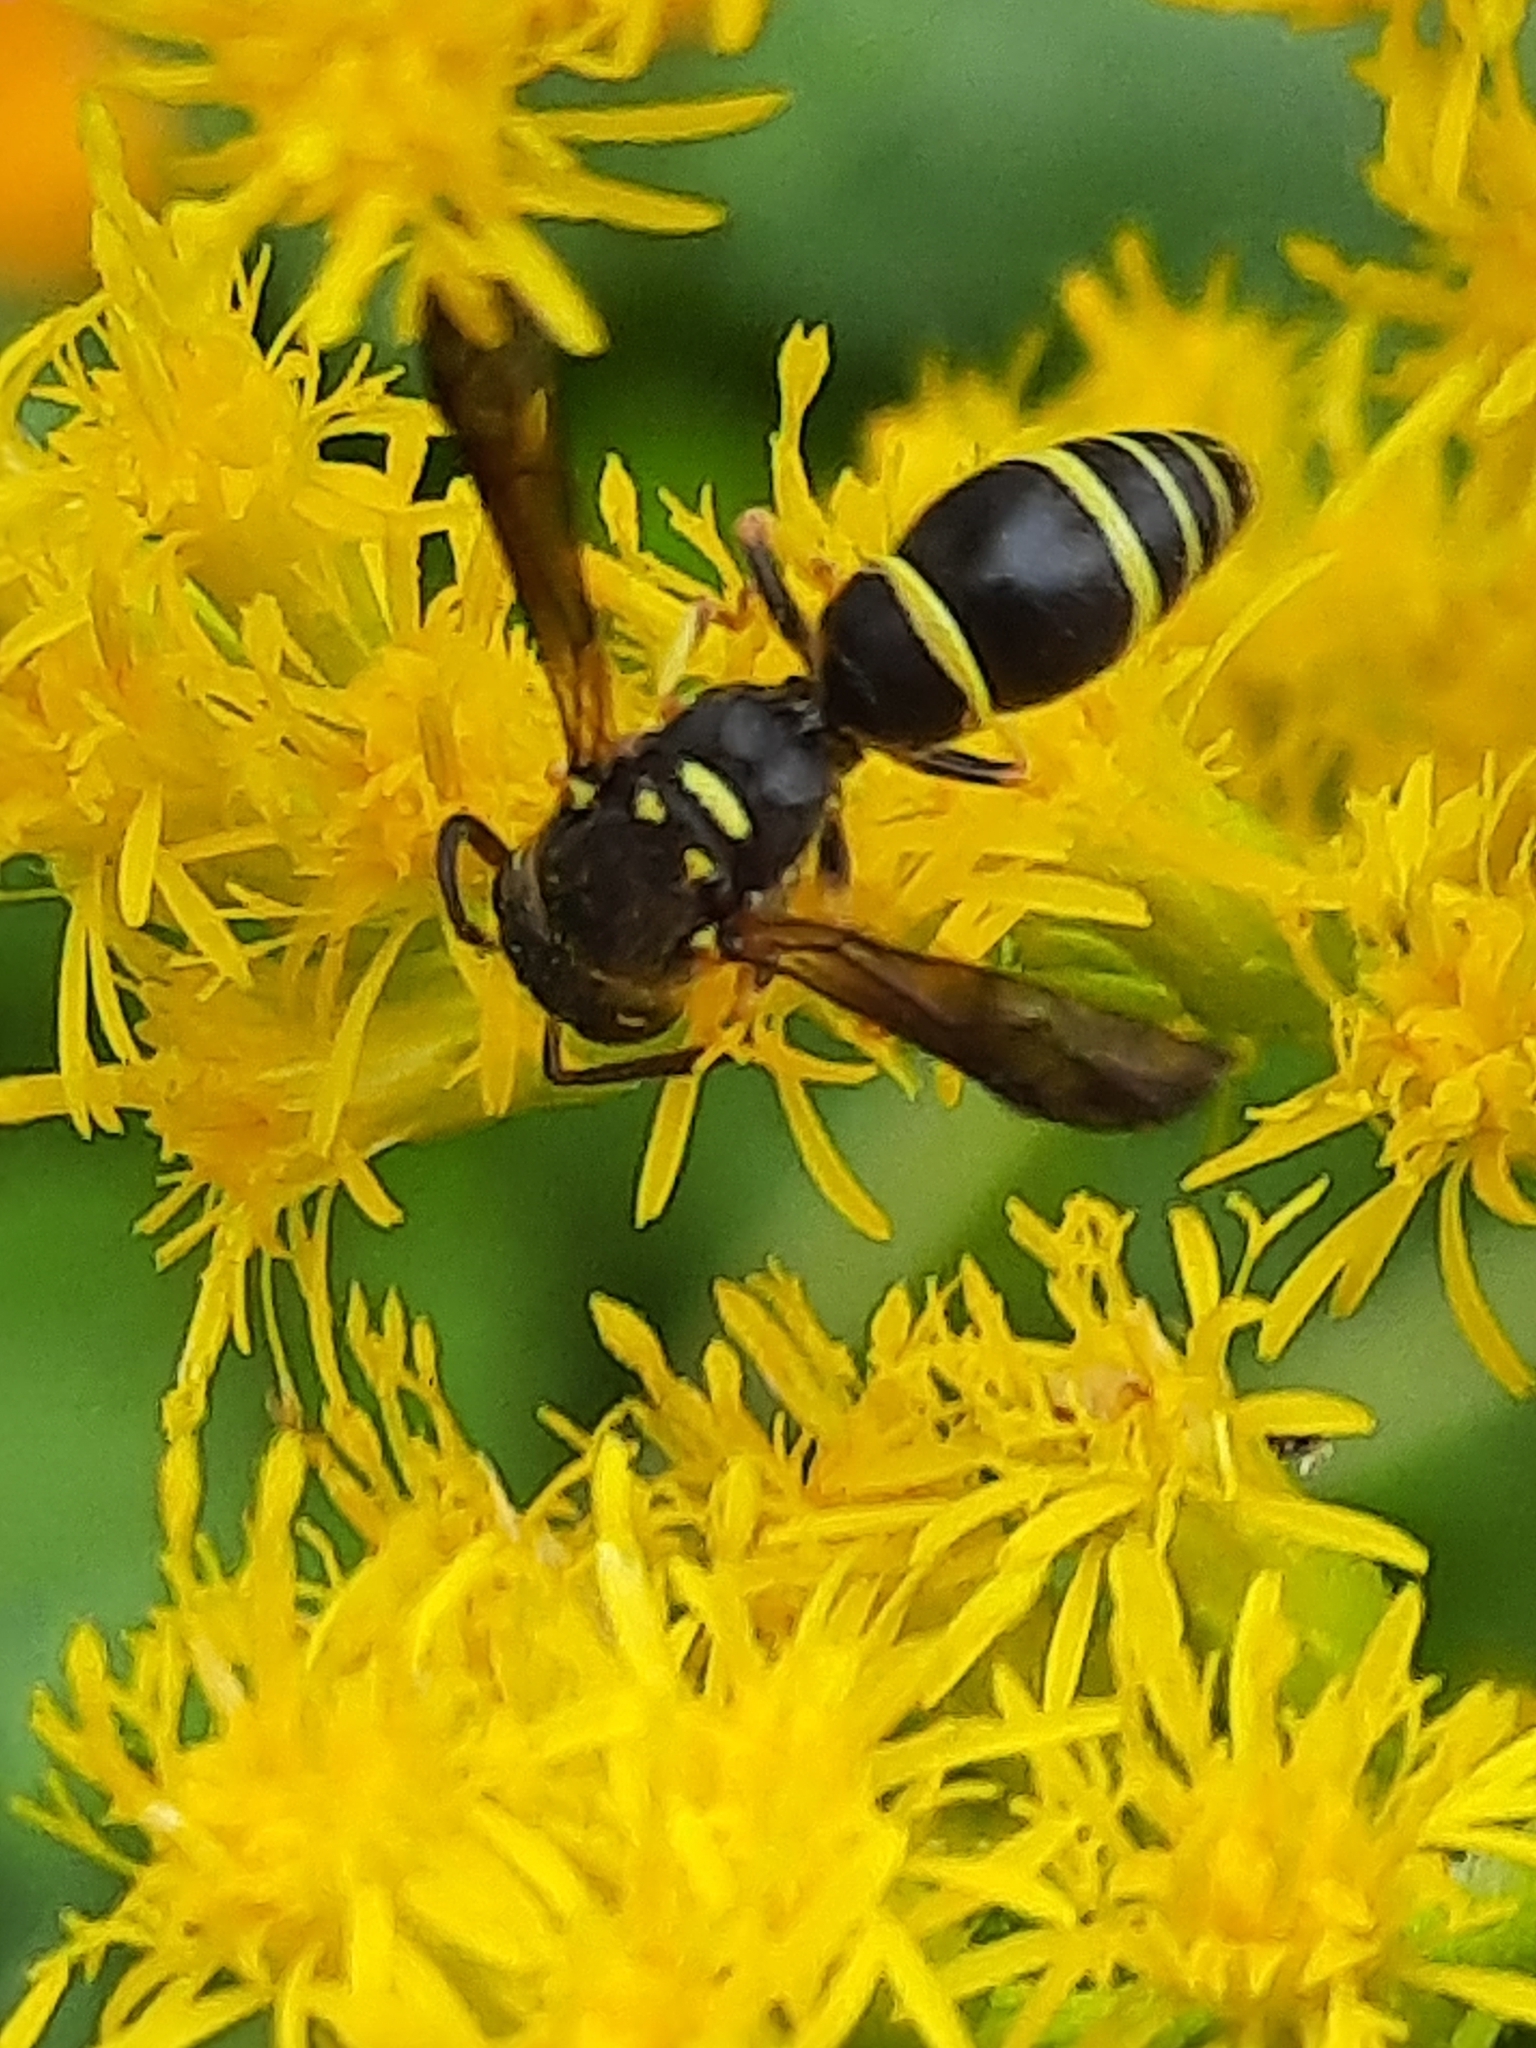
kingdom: Animalia
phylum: Arthropoda
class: Insecta
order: Hymenoptera
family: Vespidae
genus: Ancistrocerus
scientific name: Ancistrocerus adiabatus
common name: Bramble mason wasp
